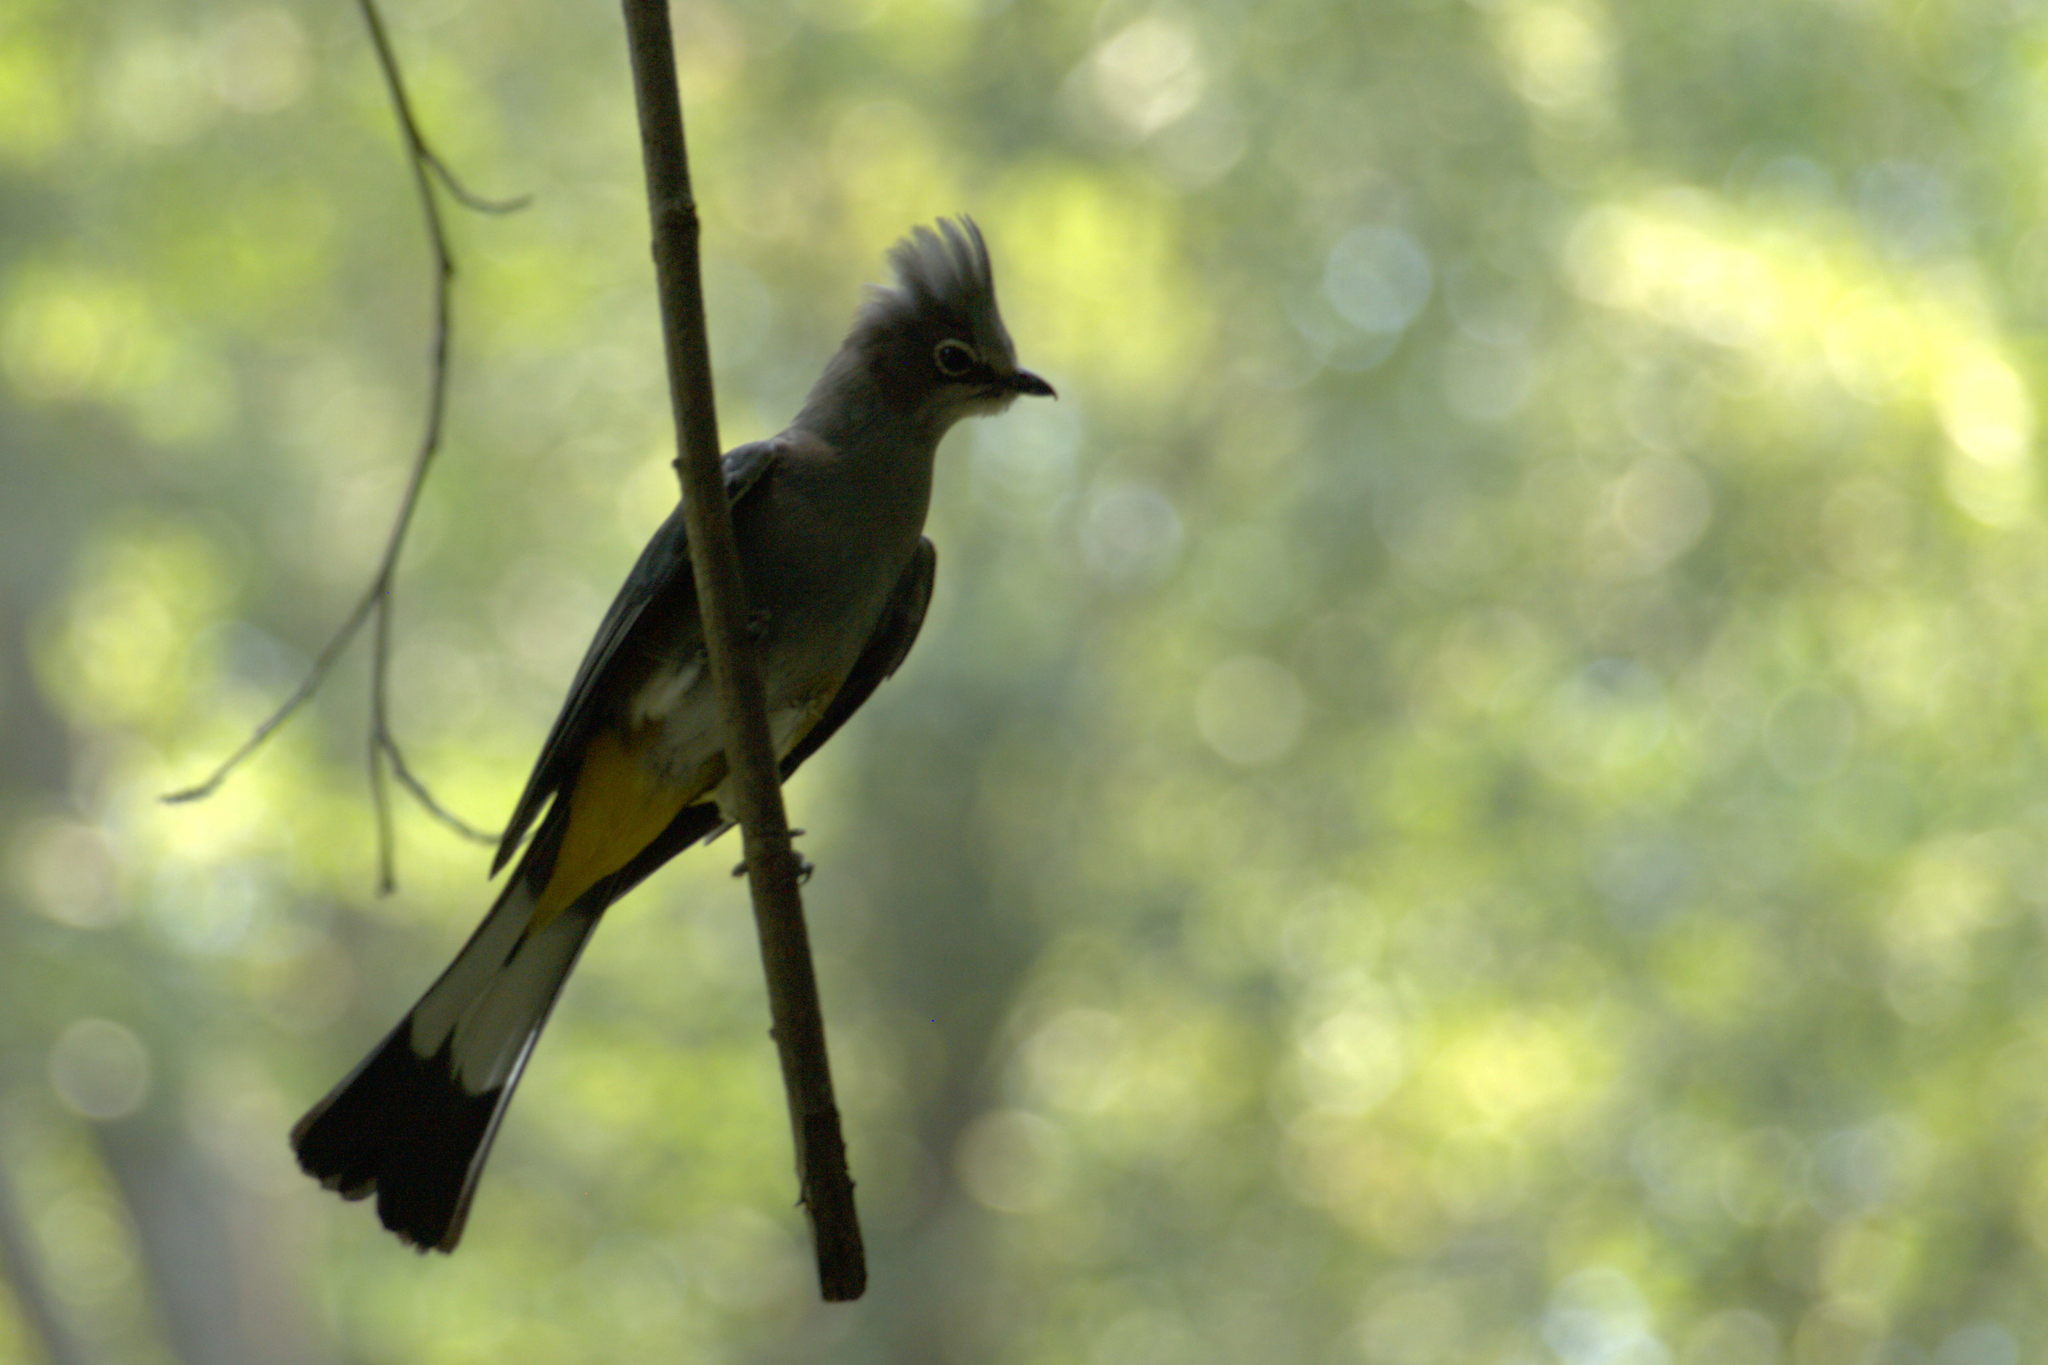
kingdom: Animalia
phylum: Chordata
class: Aves
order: Passeriformes
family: Ptilogonatidae
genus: Ptilogonys
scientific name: Ptilogonys cinereus
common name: Gray silky-flycatcher
